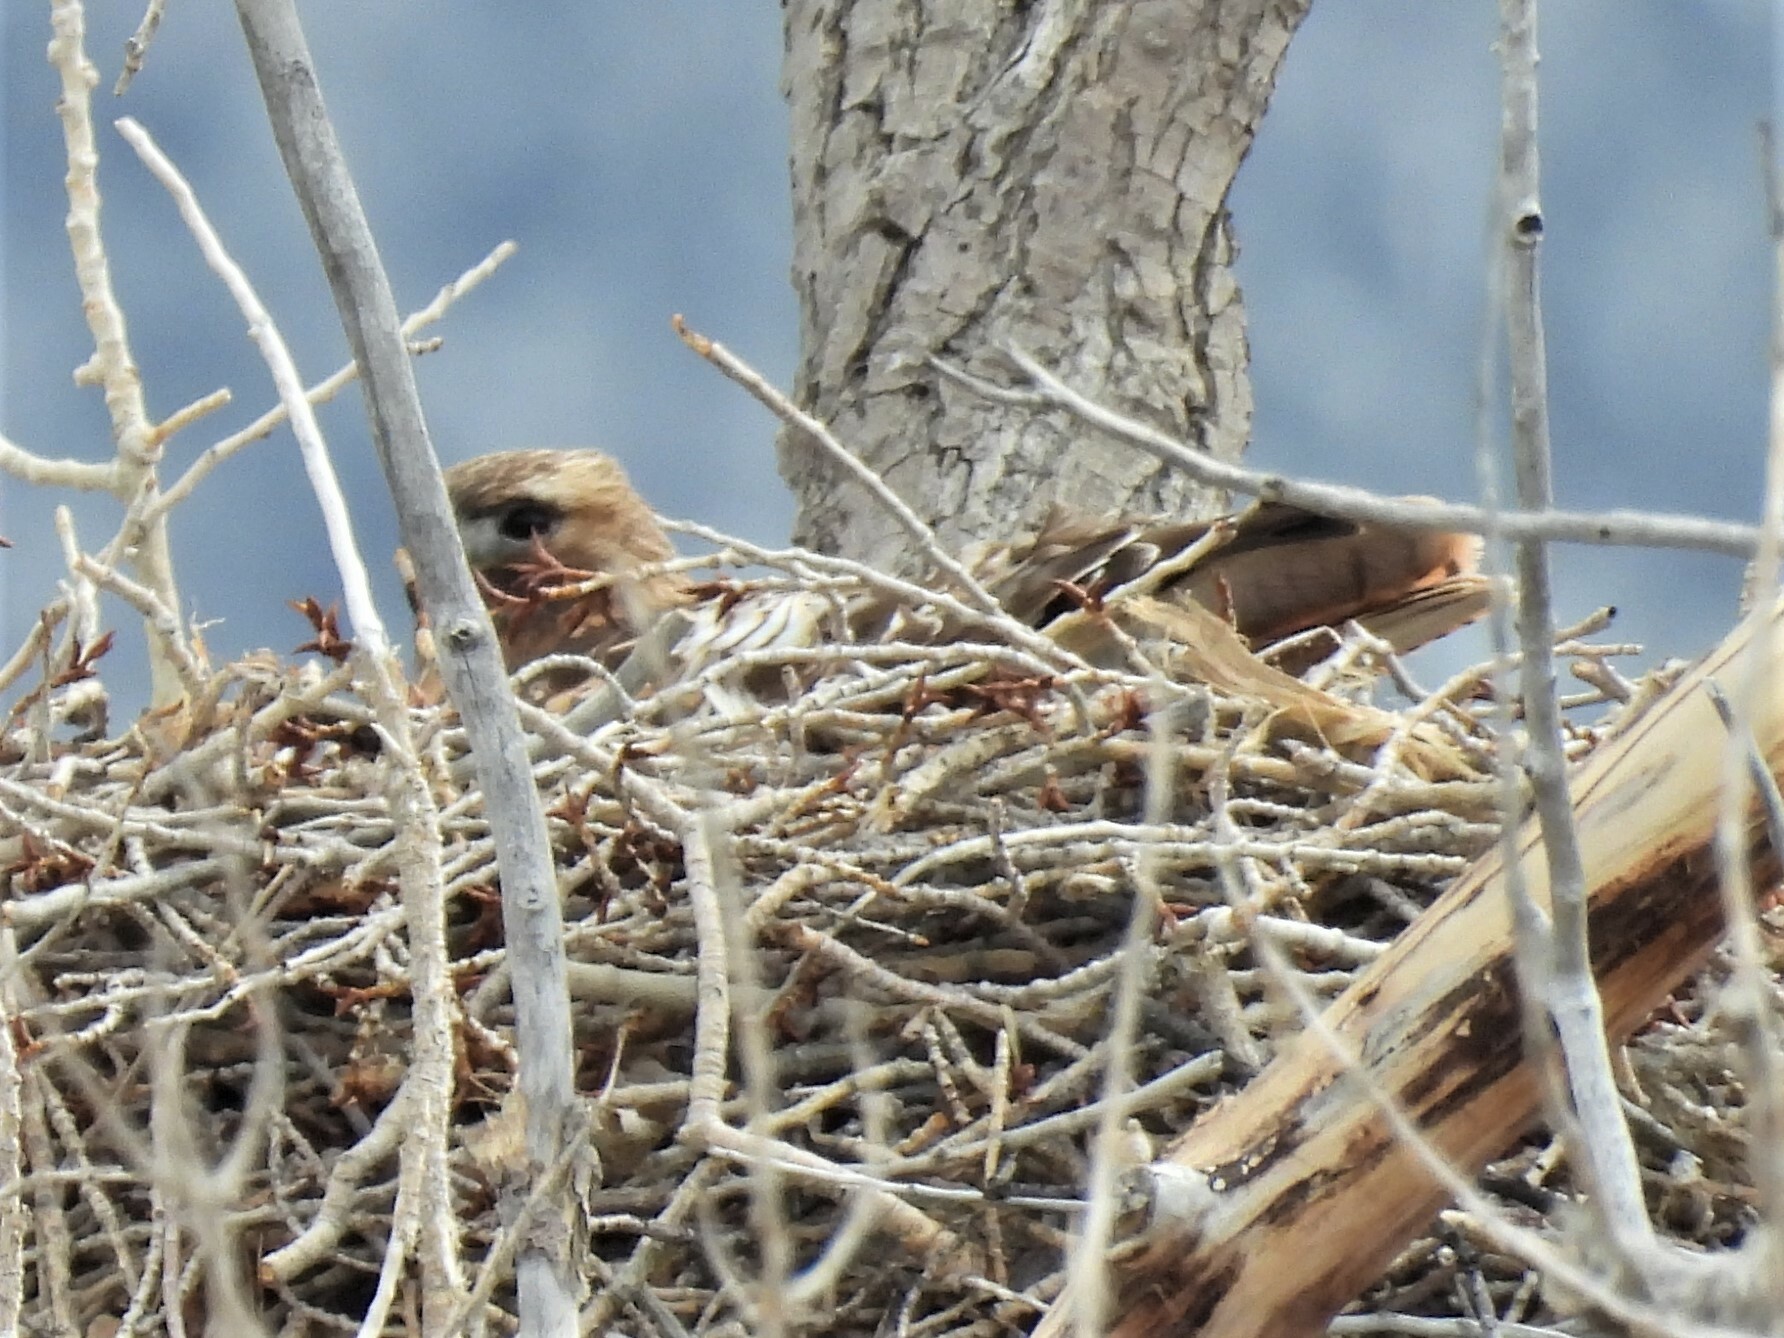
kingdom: Animalia
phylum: Chordata
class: Aves
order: Accipitriformes
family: Accipitridae
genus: Buteo
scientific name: Buteo jamaicensis
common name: Red-tailed hawk
